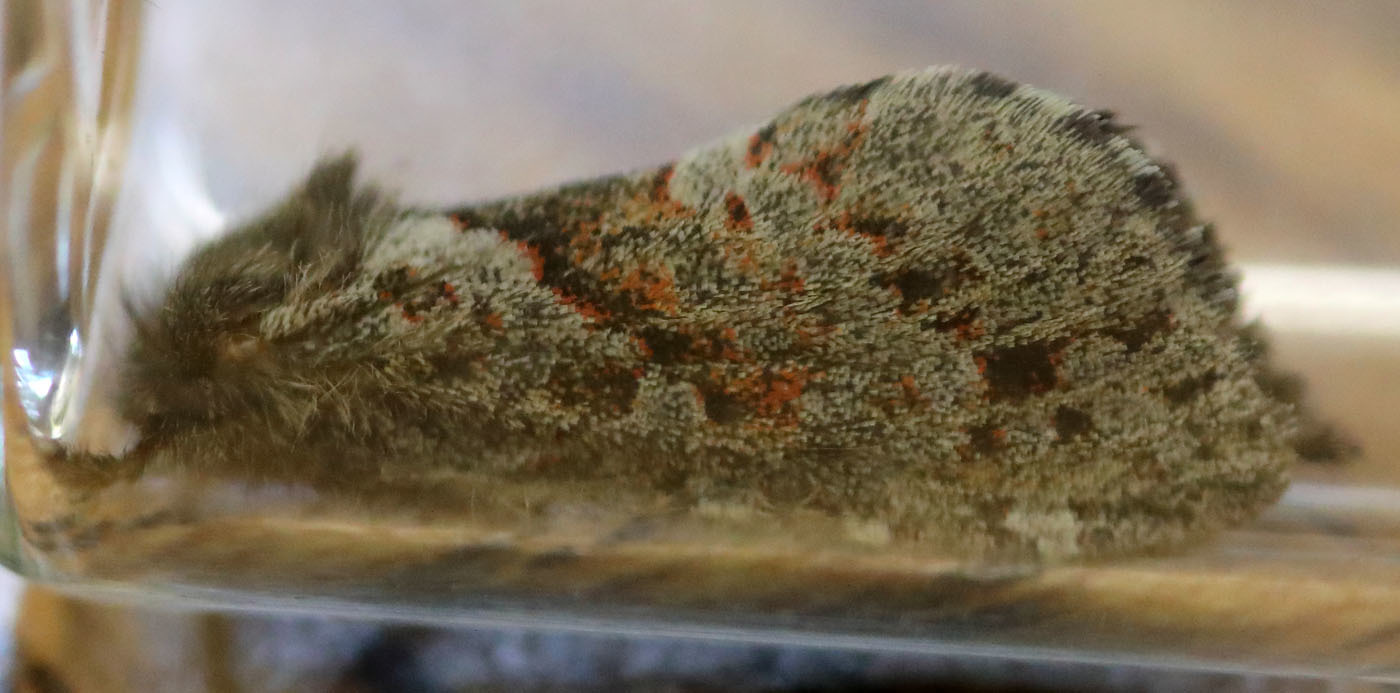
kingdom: Animalia
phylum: Arthropoda
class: Insecta
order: Lepidoptera
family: Hepialidae
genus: Phymatopus
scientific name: Phymatopus hectoides
